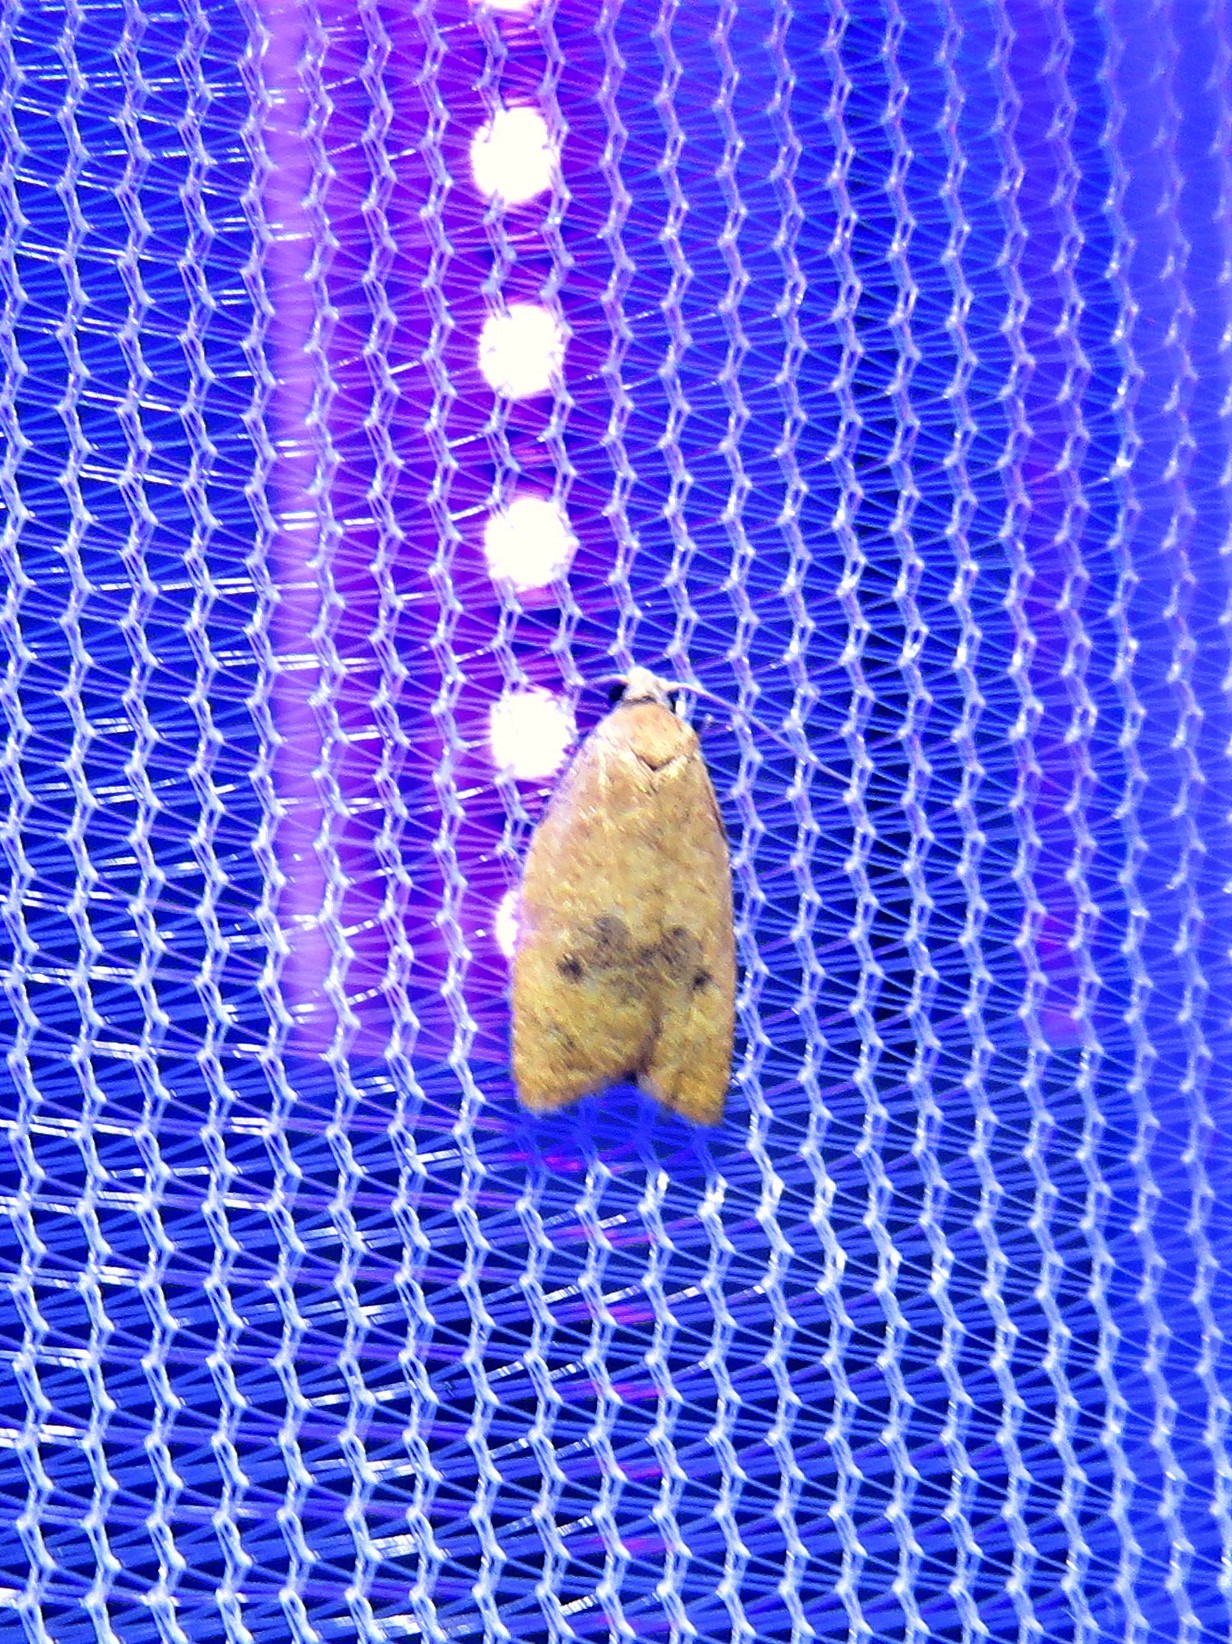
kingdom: Animalia
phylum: Arthropoda
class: Insecta
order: Lepidoptera
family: Tortricidae
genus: Sparganothoides
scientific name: Sparganothoides lentiginosana
